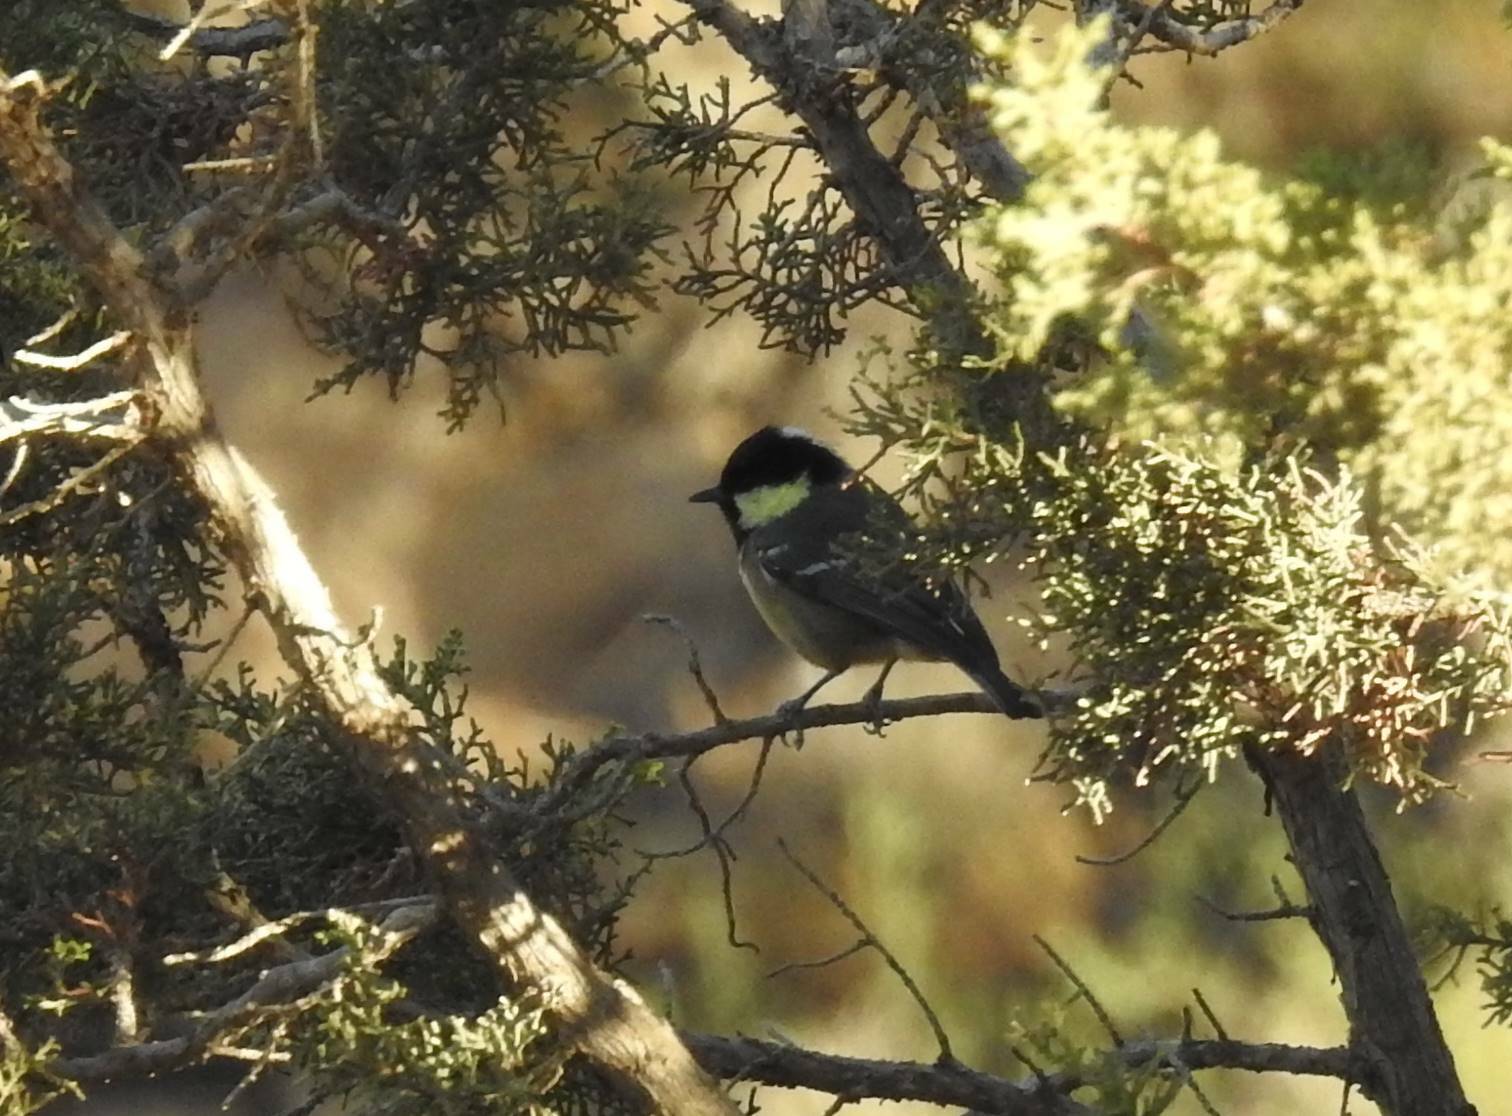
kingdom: Animalia
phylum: Chordata
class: Aves
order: Passeriformes
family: Paridae
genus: Periparus
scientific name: Periparus ater
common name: Coal tit
